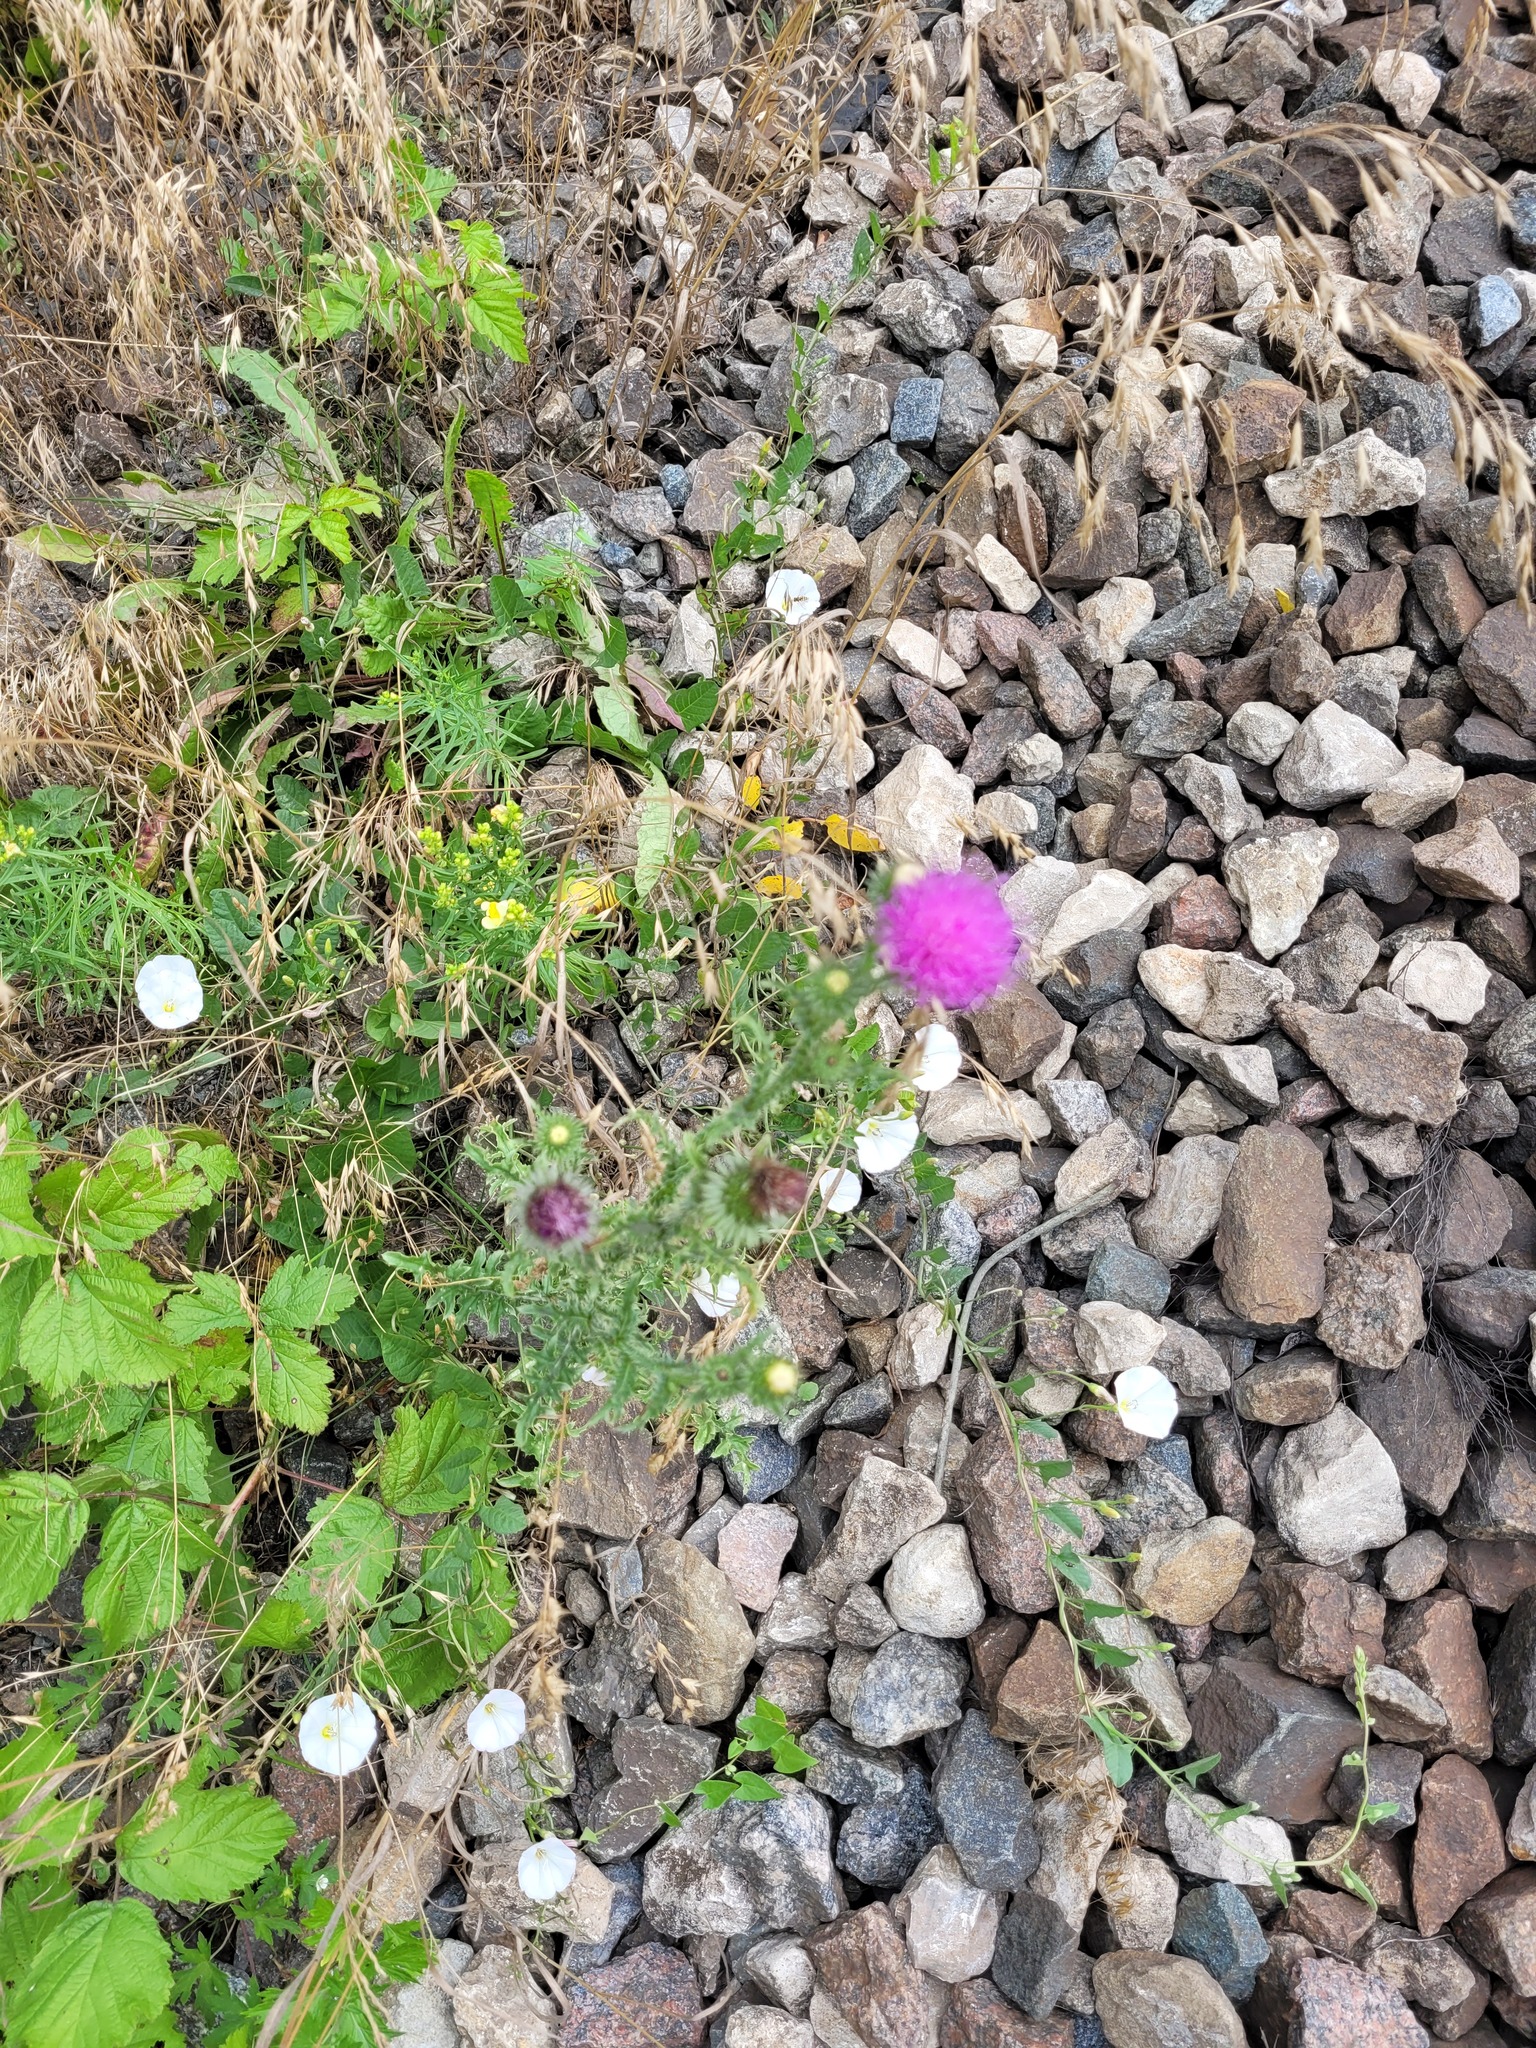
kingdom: Plantae
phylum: Tracheophyta
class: Magnoliopsida
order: Asterales
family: Asteraceae
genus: Carduus
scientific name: Carduus acanthoides
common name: Plumeless thistle
